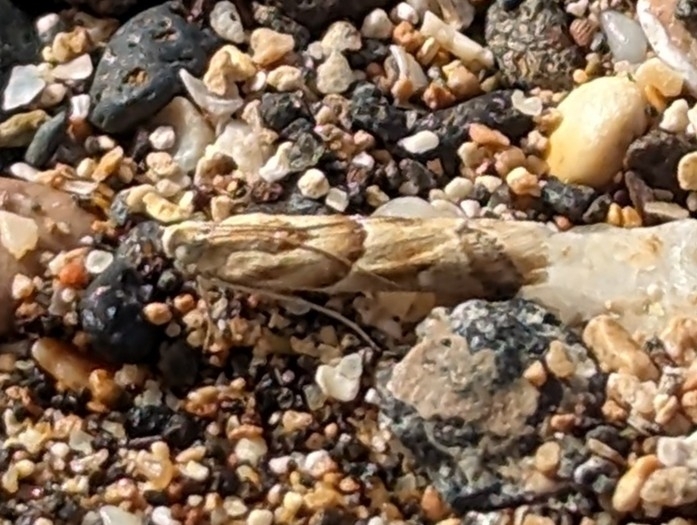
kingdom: Animalia
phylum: Arthropoda
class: Insecta
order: Lepidoptera
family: Pyralidae
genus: Ancylosis
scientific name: Ancylosis convexella
